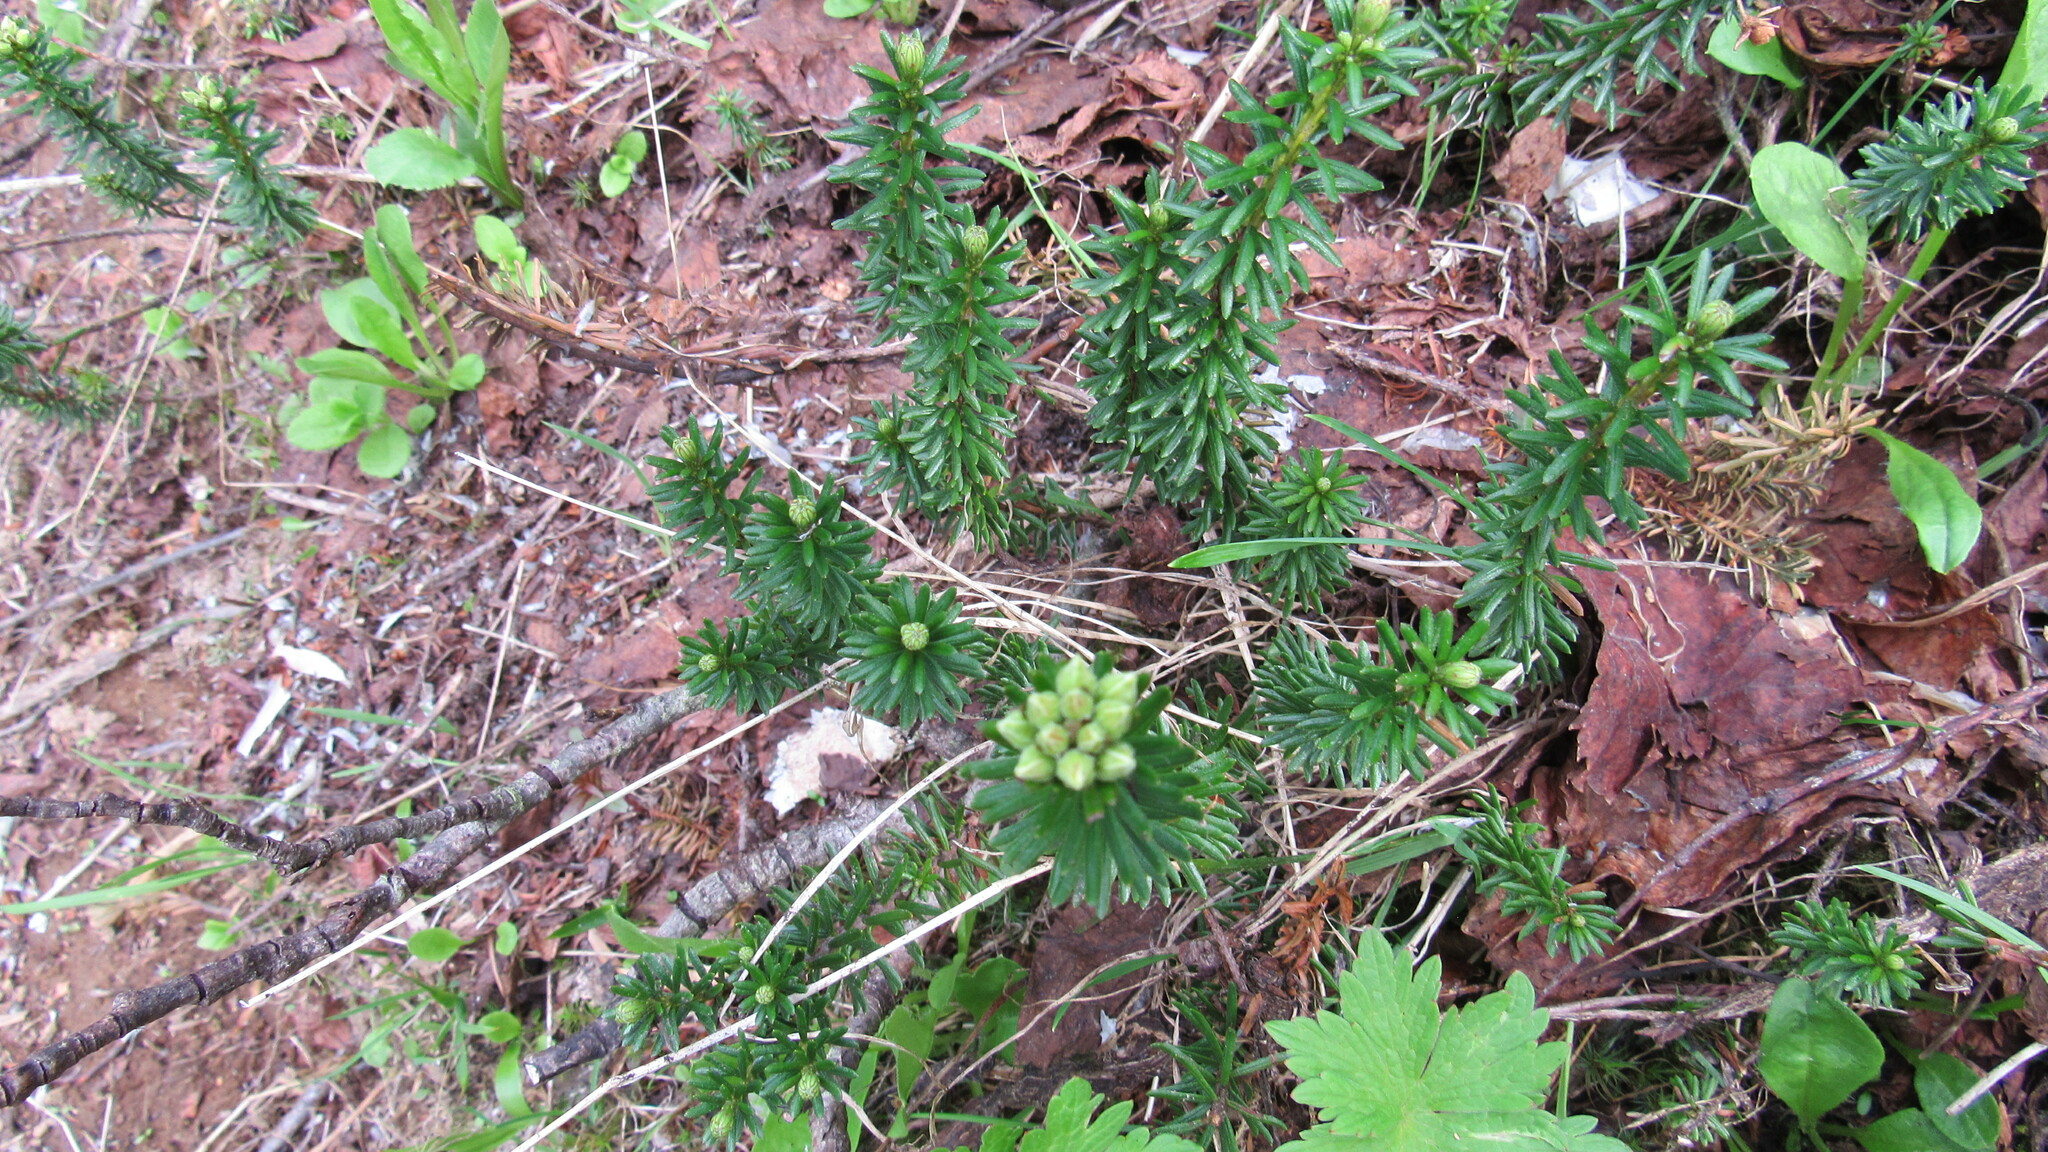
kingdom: Plantae
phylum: Tracheophyta
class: Magnoliopsida
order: Ericales
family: Ericaceae
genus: Phyllodoce
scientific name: Phyllodoce aleutica
